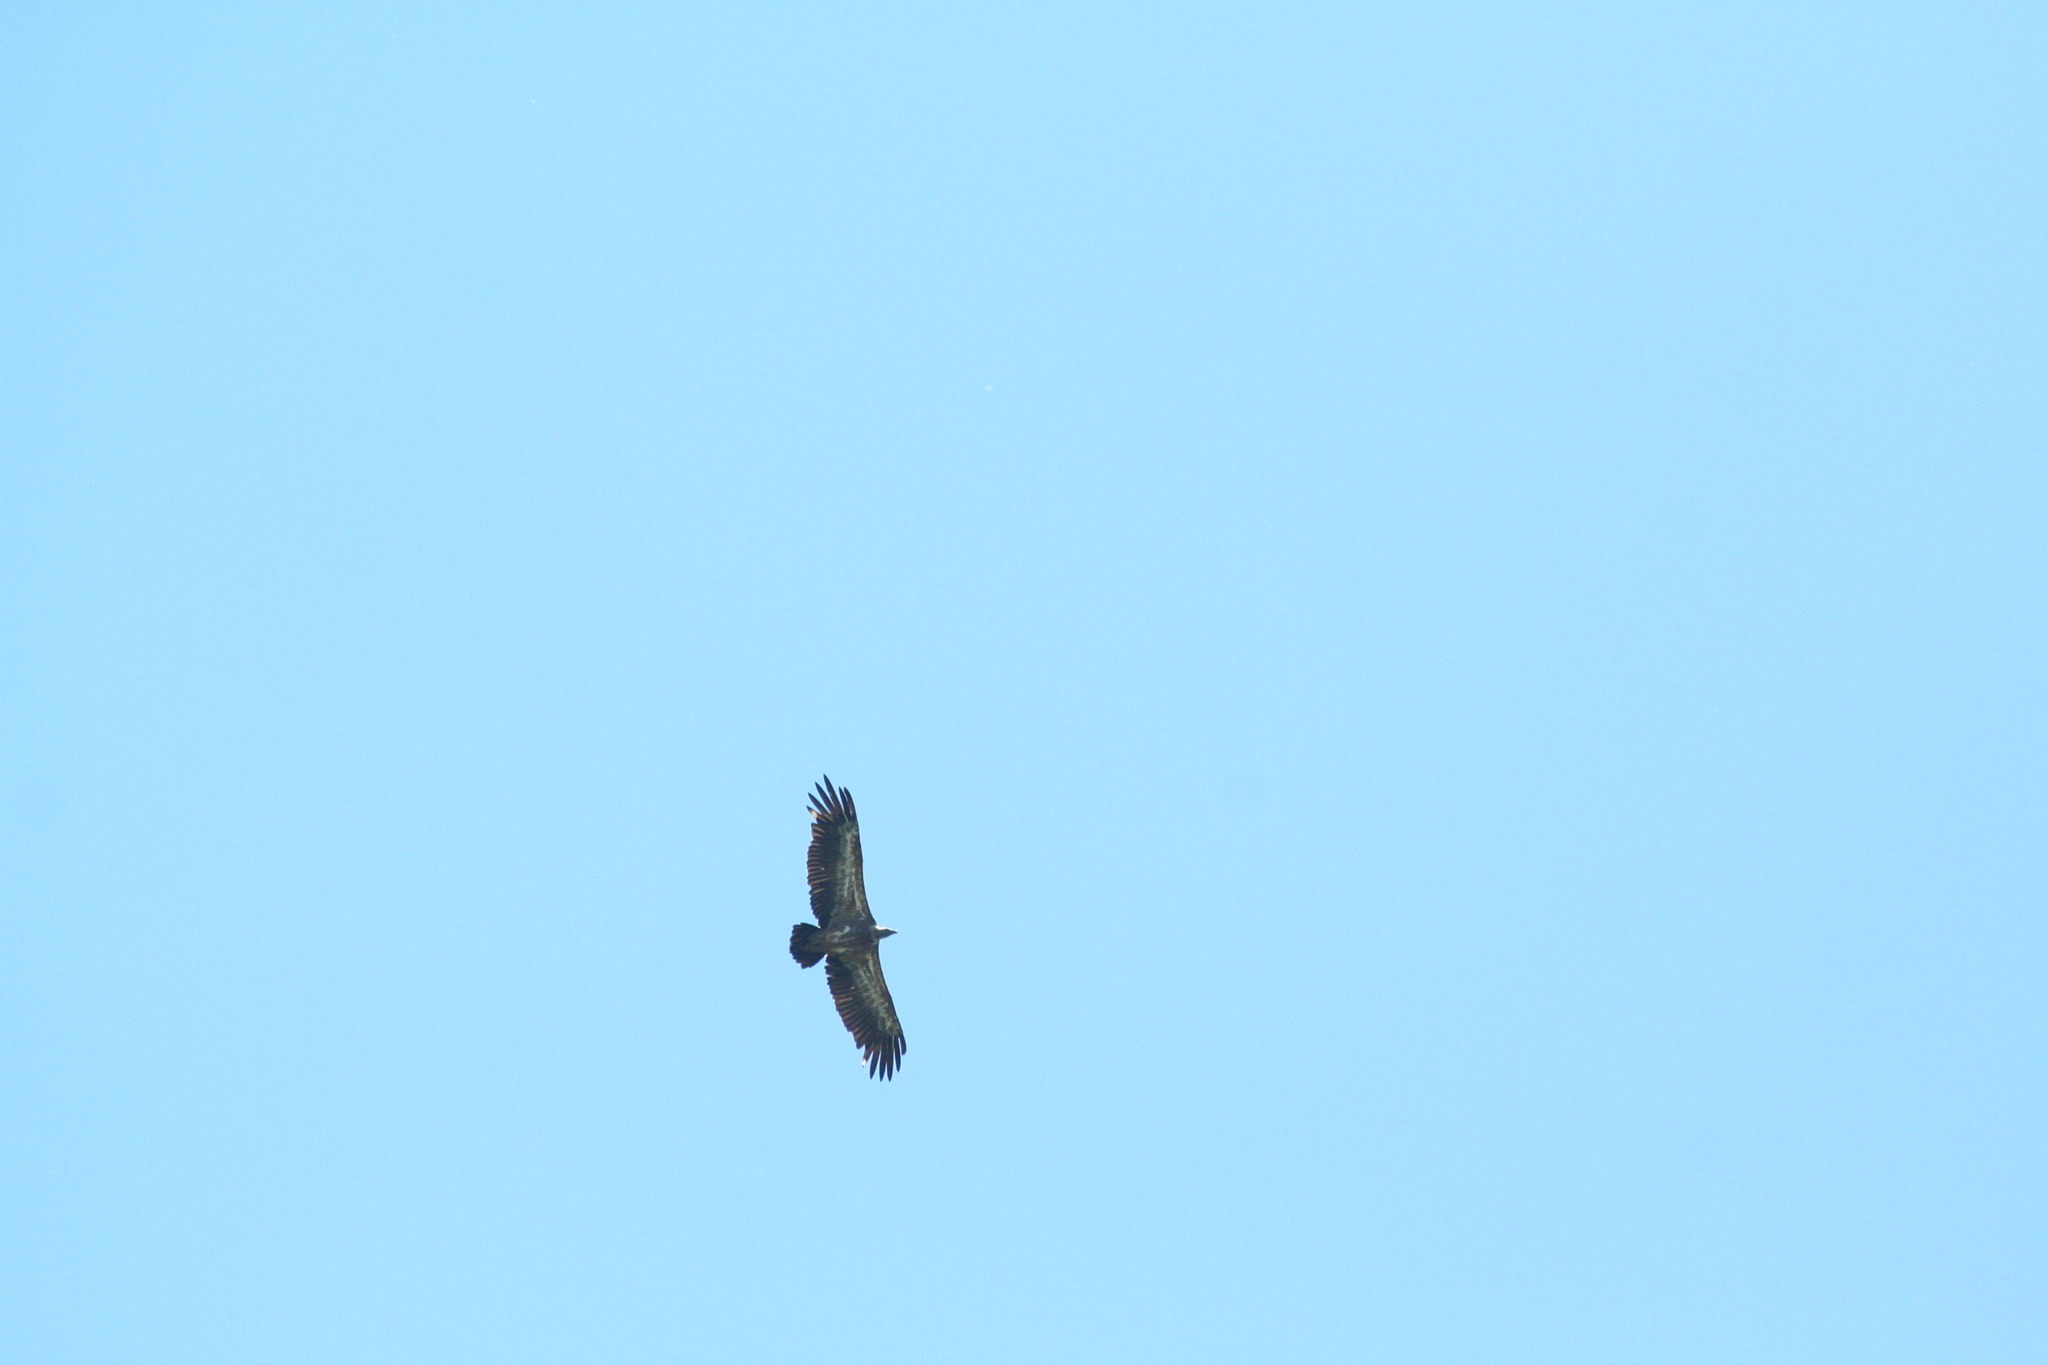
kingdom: Animalia
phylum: Chordata
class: Aves
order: Accipitriformes
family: Accipitridae
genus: Gyps
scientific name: Gyps fulvus
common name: Griffon vulture
